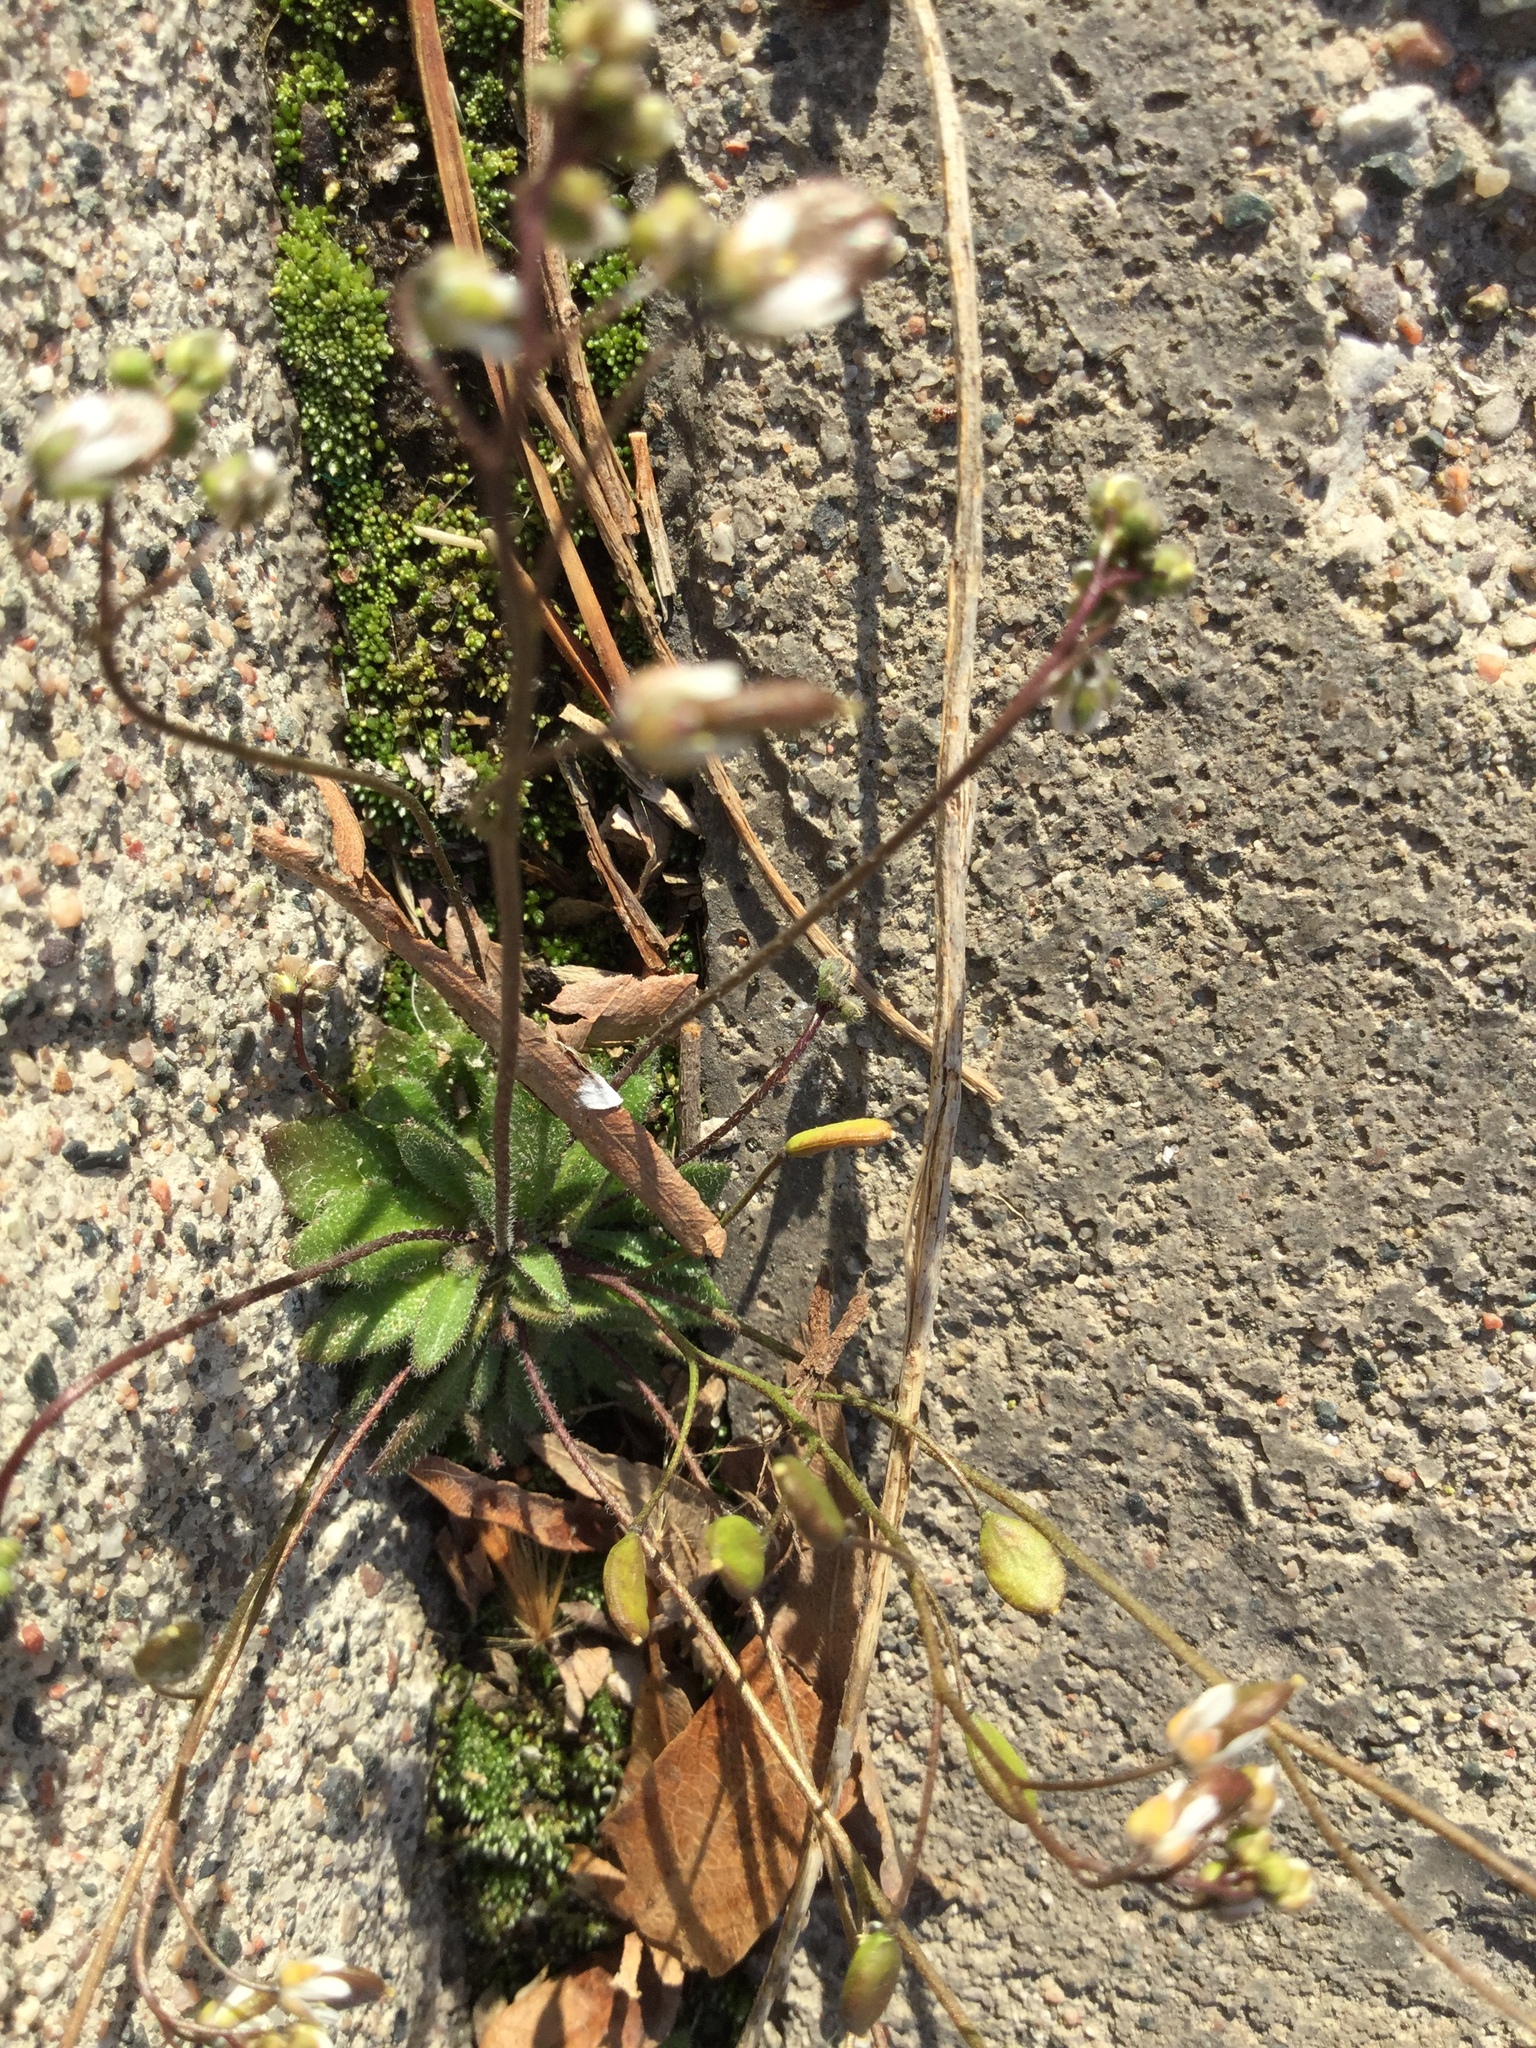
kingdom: Plantae
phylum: Tracheophyta
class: Magnoliopsida
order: Brassicales
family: Brassicaceae
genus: Draba
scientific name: Draba verna
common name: Spring draba
